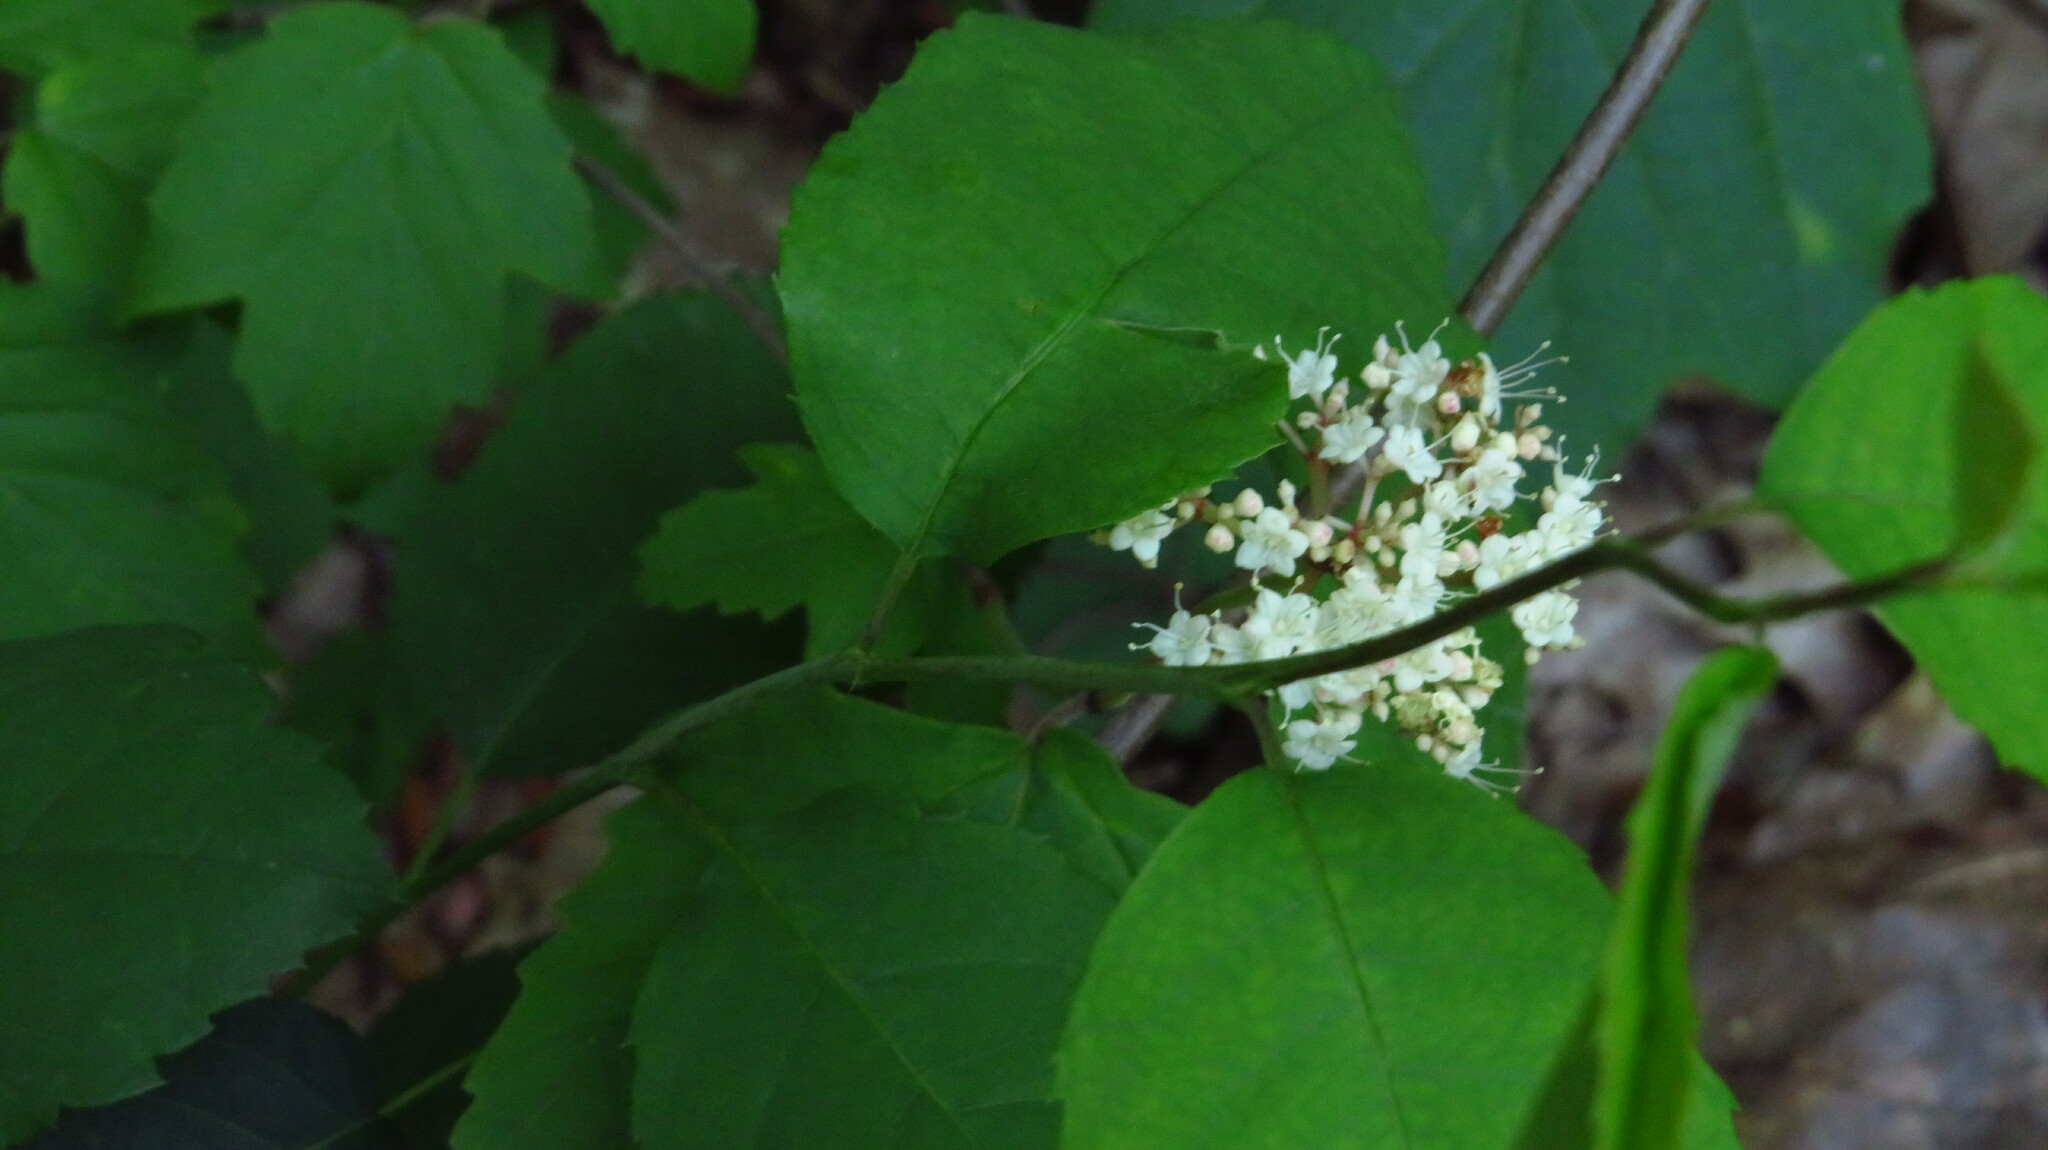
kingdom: Plantae
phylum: Tracheophyta
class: Magnoliopsida
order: Dipsacales
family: Viburnaceae
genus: Viburnum
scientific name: Viburnum acerifolium
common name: Dockmackie
